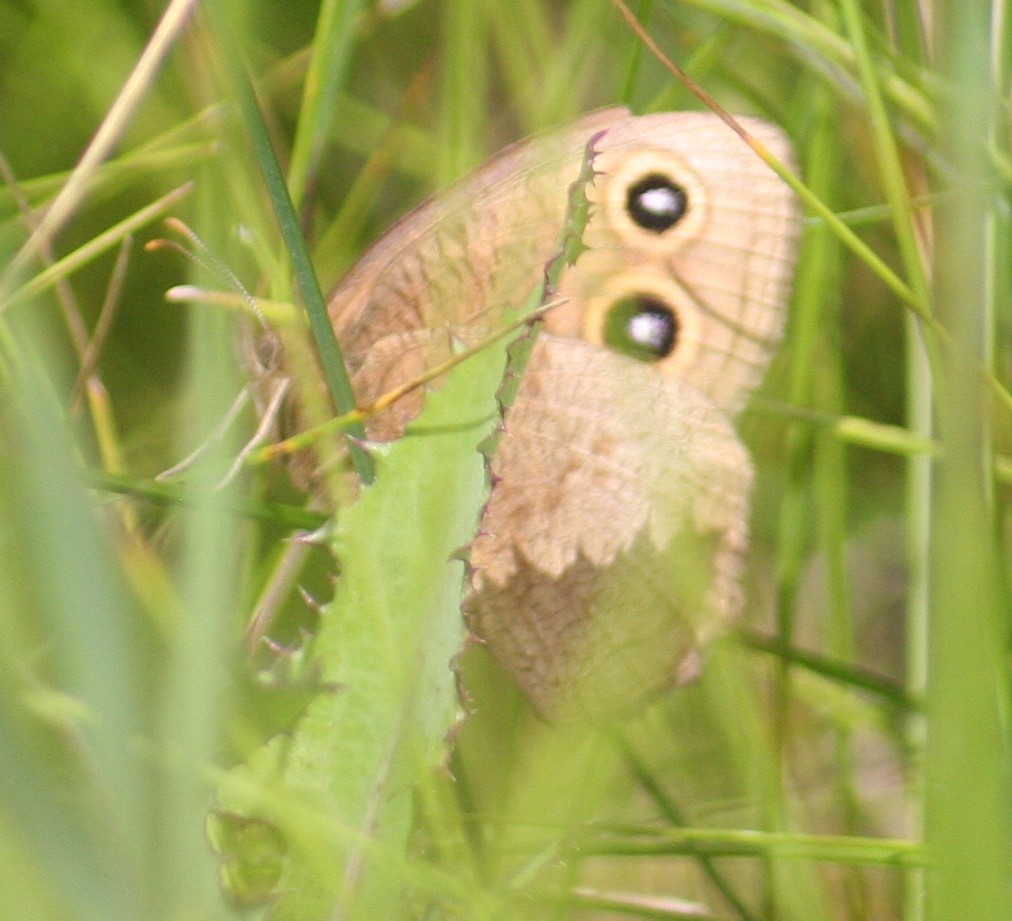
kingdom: Animalia
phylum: Arthropoda
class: Insecta
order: Lepidoptera
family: Nymphalidae
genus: Cercyonis
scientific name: Cercyonis pegala
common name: Common wood-nymph
